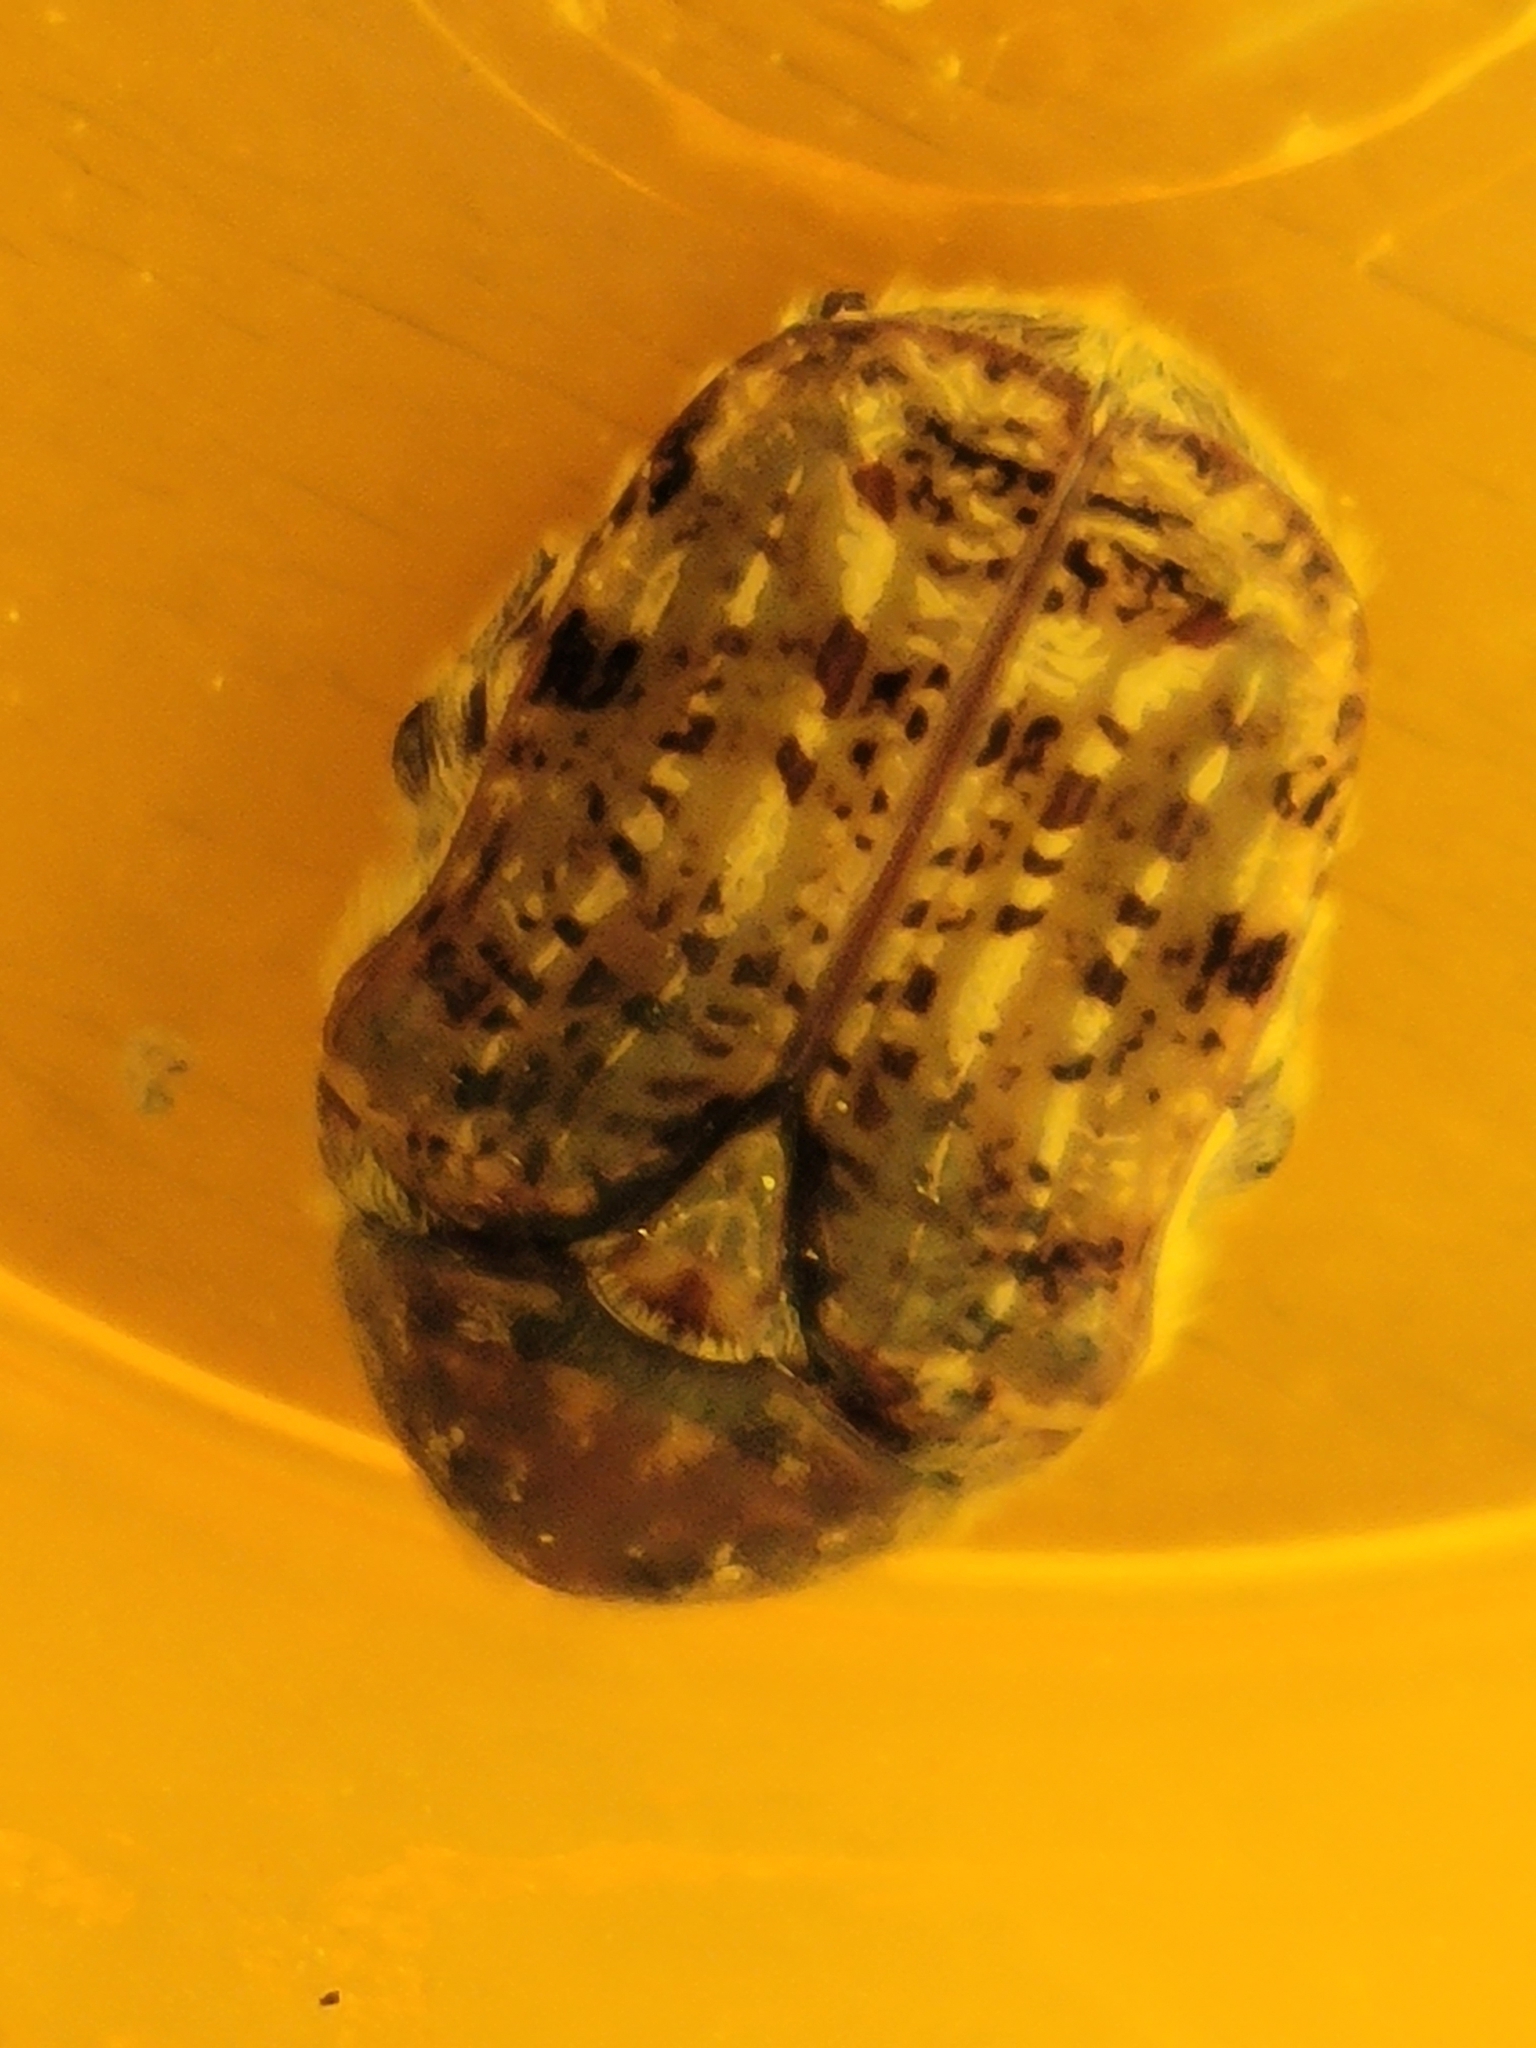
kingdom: Animalia
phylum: Arthropoda
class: Insecta
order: Coleoptera
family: Scarabaeidae
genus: Euphoria
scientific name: Euphoria inda
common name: Bumble flower beetle
